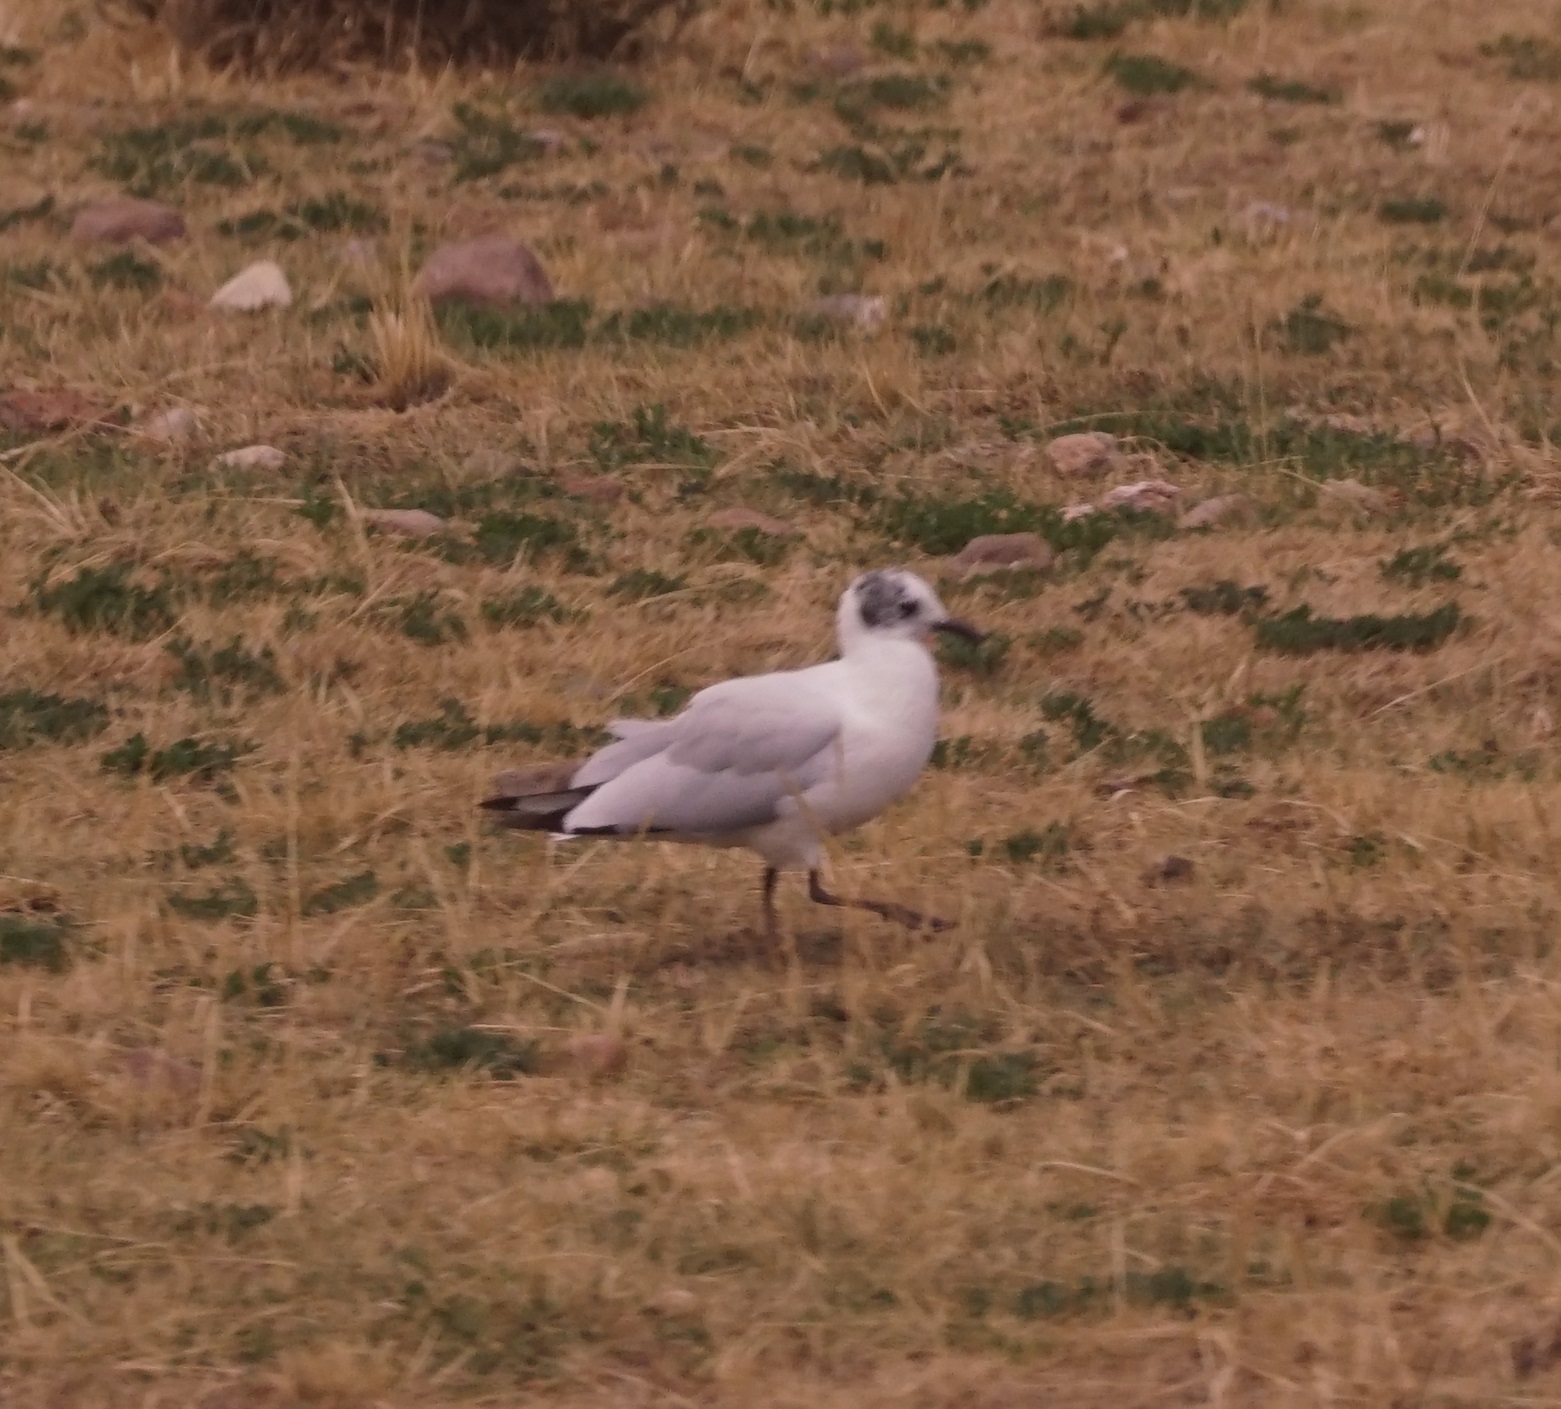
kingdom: Animalia
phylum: Chordata
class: Aves
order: Charadriiformes
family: Laridae
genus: Chroicocephalus
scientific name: Chroicocephalus serranus
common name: Andean gull
